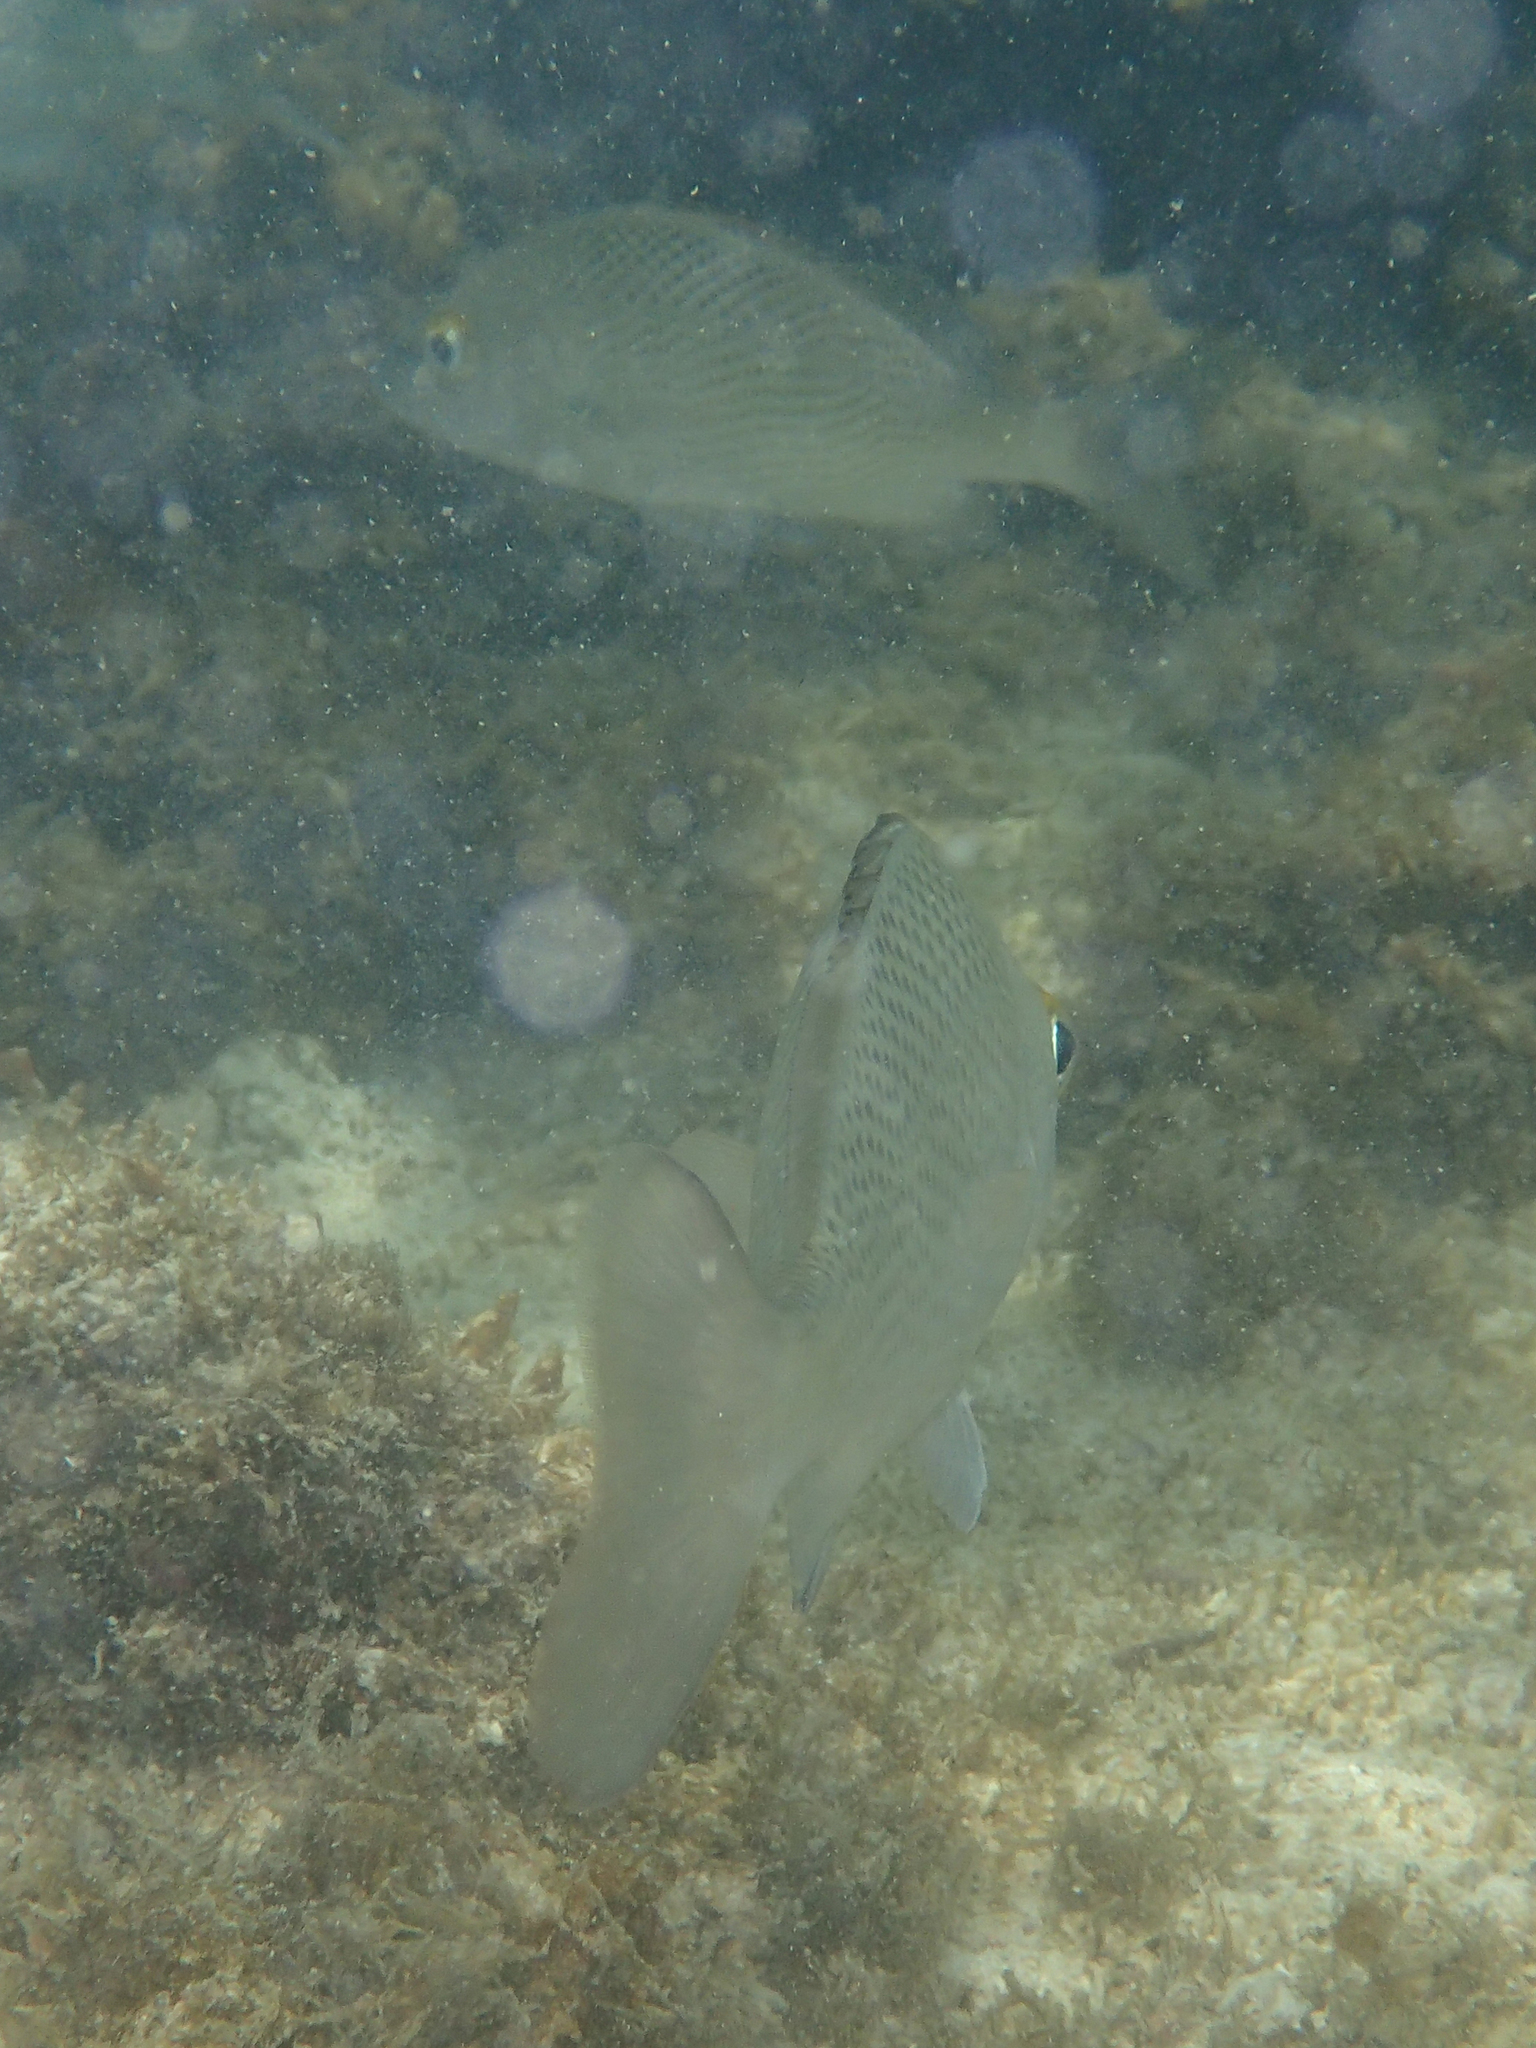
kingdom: Animalia
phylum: Chordata
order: Perciformes
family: Haemulidae
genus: Haemulon
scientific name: Haemulon scudderii
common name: Grey grunt
